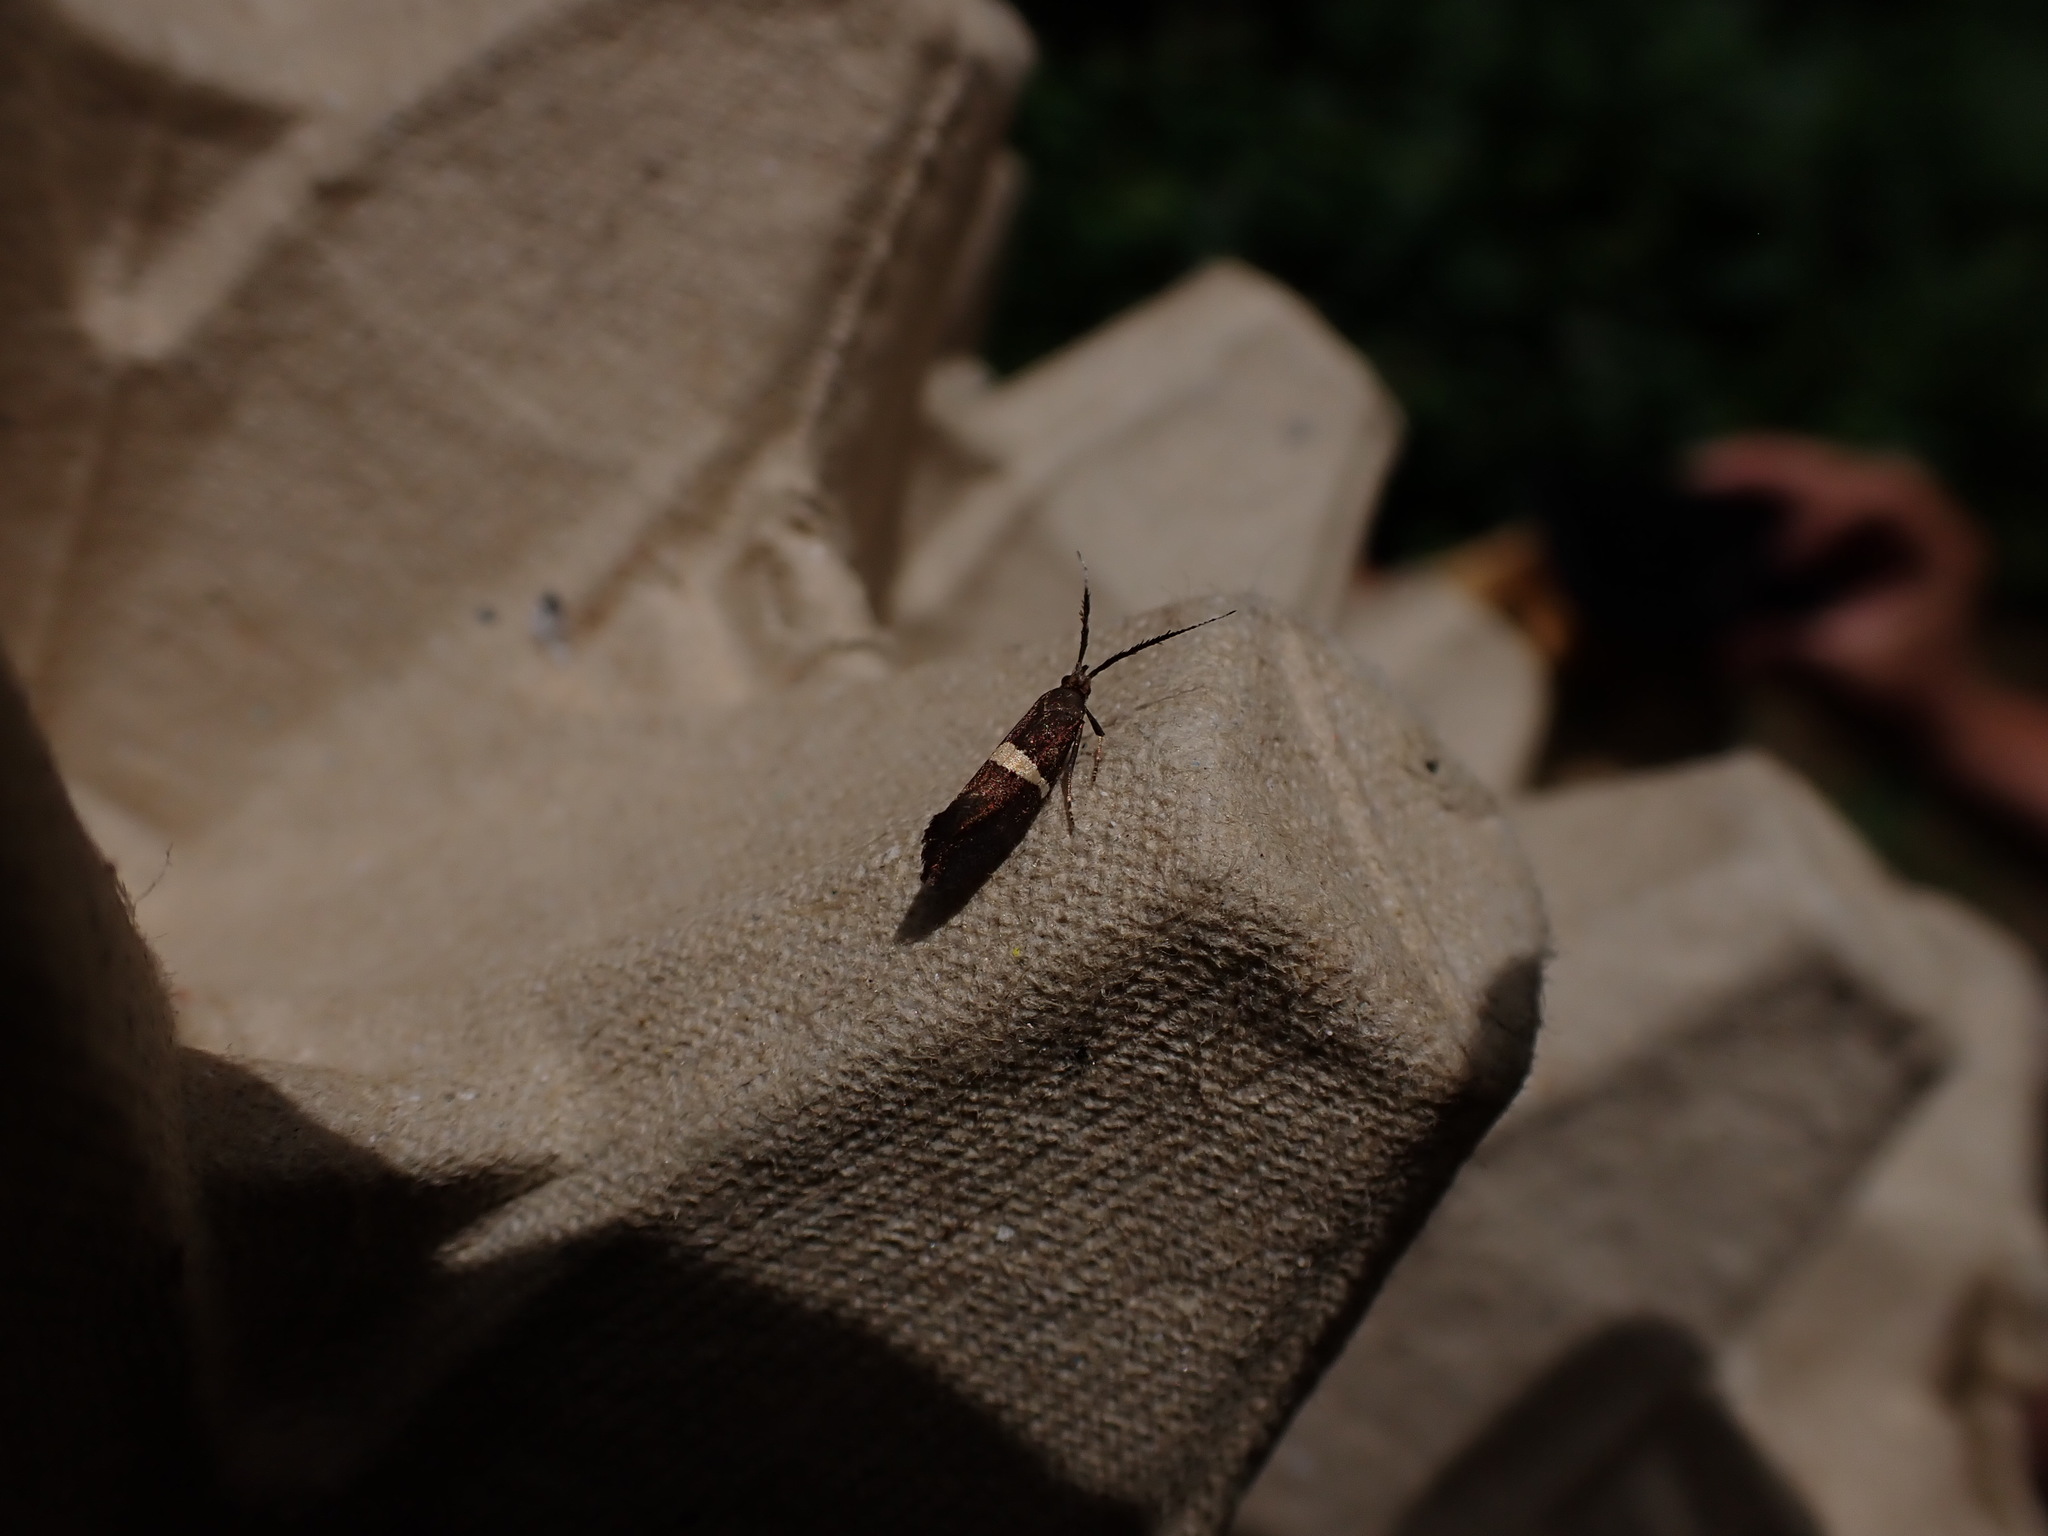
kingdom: Animalia
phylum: Arthropoda
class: Insecta
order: Lepidoptera
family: Plutellidae
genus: Eidophasia
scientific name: Eidophasia messingiella
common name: Bitter-cress smudge
